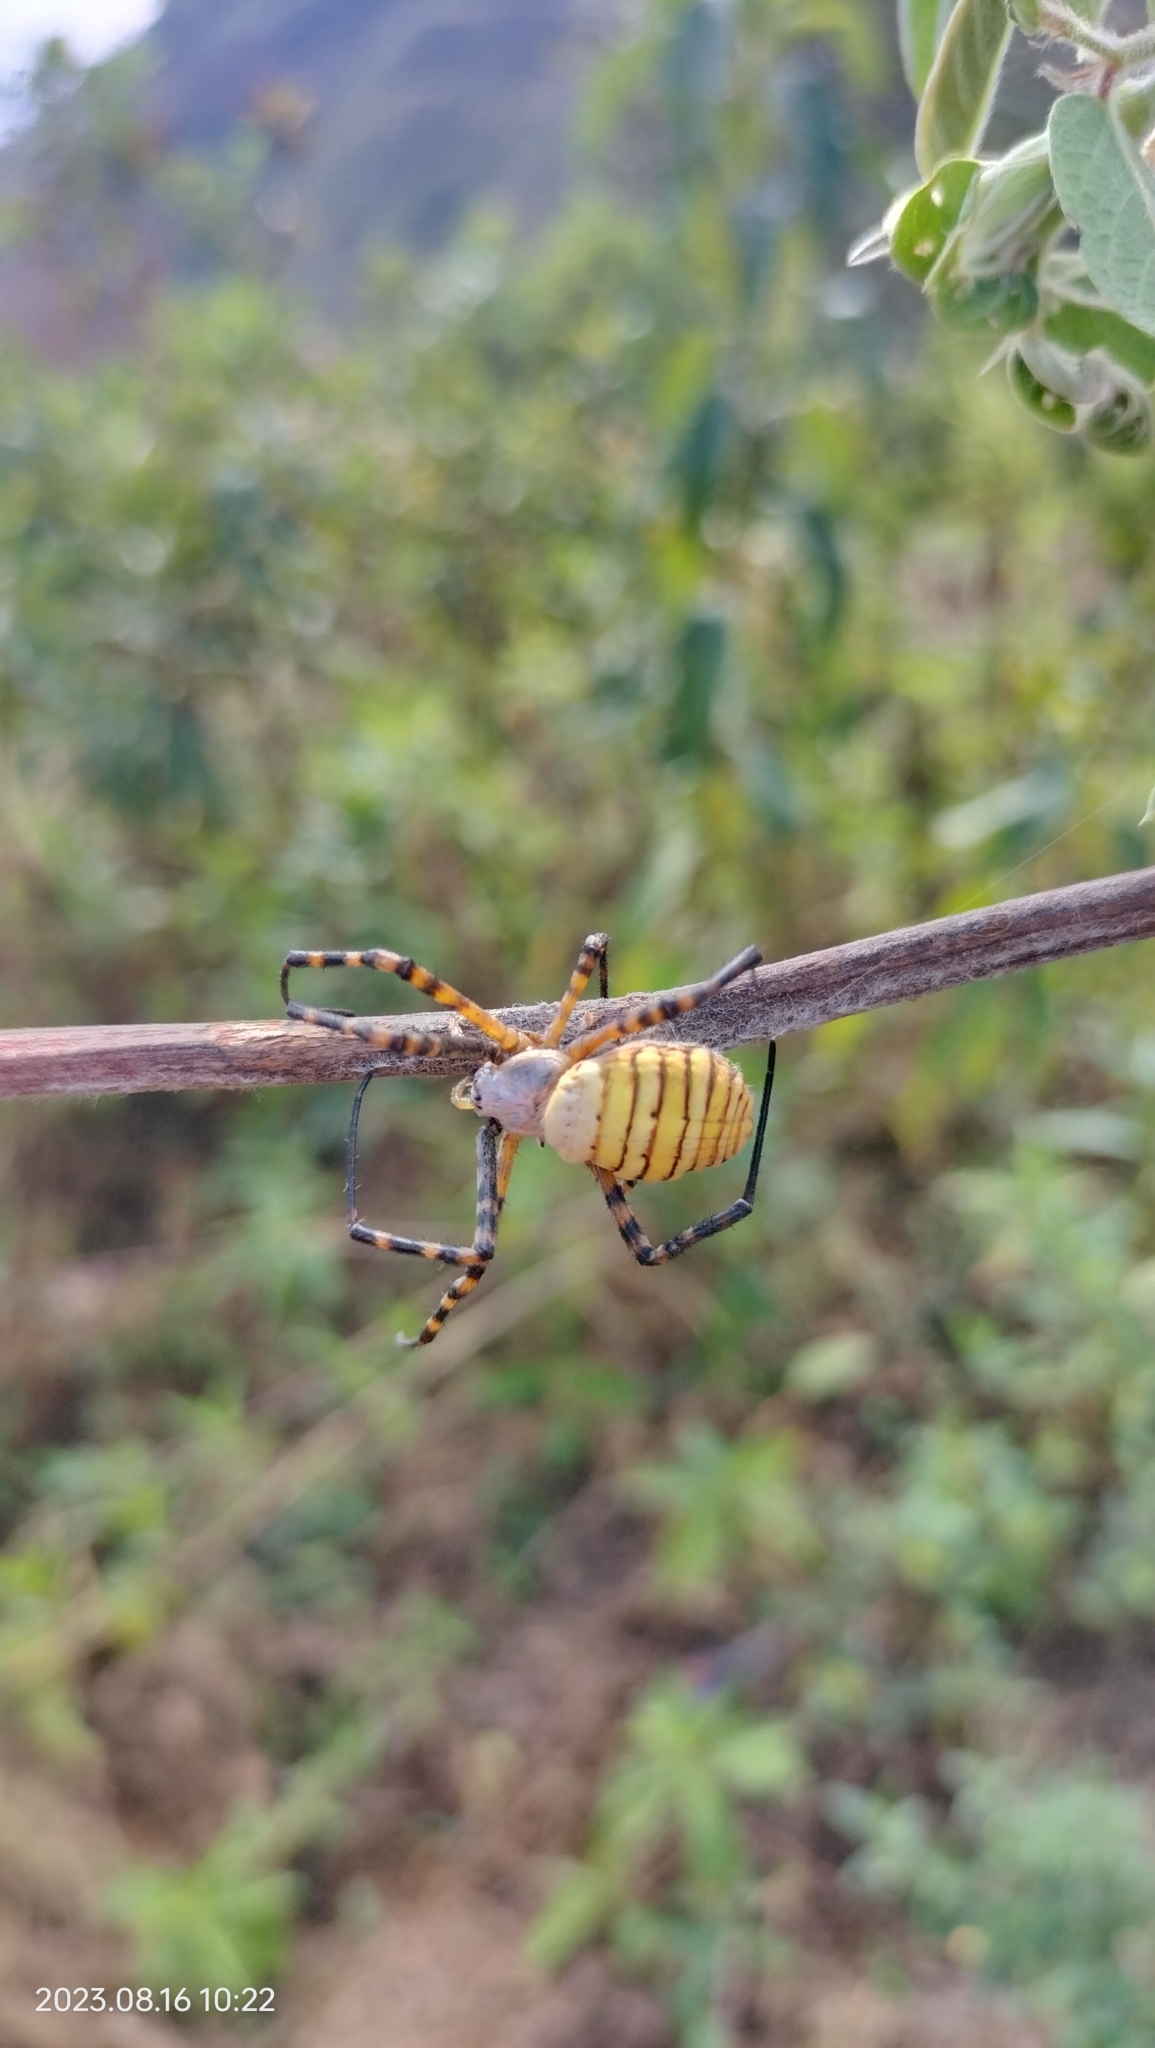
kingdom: Animalia
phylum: Arthropoda
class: Arachnida
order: Araneae
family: Araneidae
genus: Argiope
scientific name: Argiope trifasciata
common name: Banded garden spider
